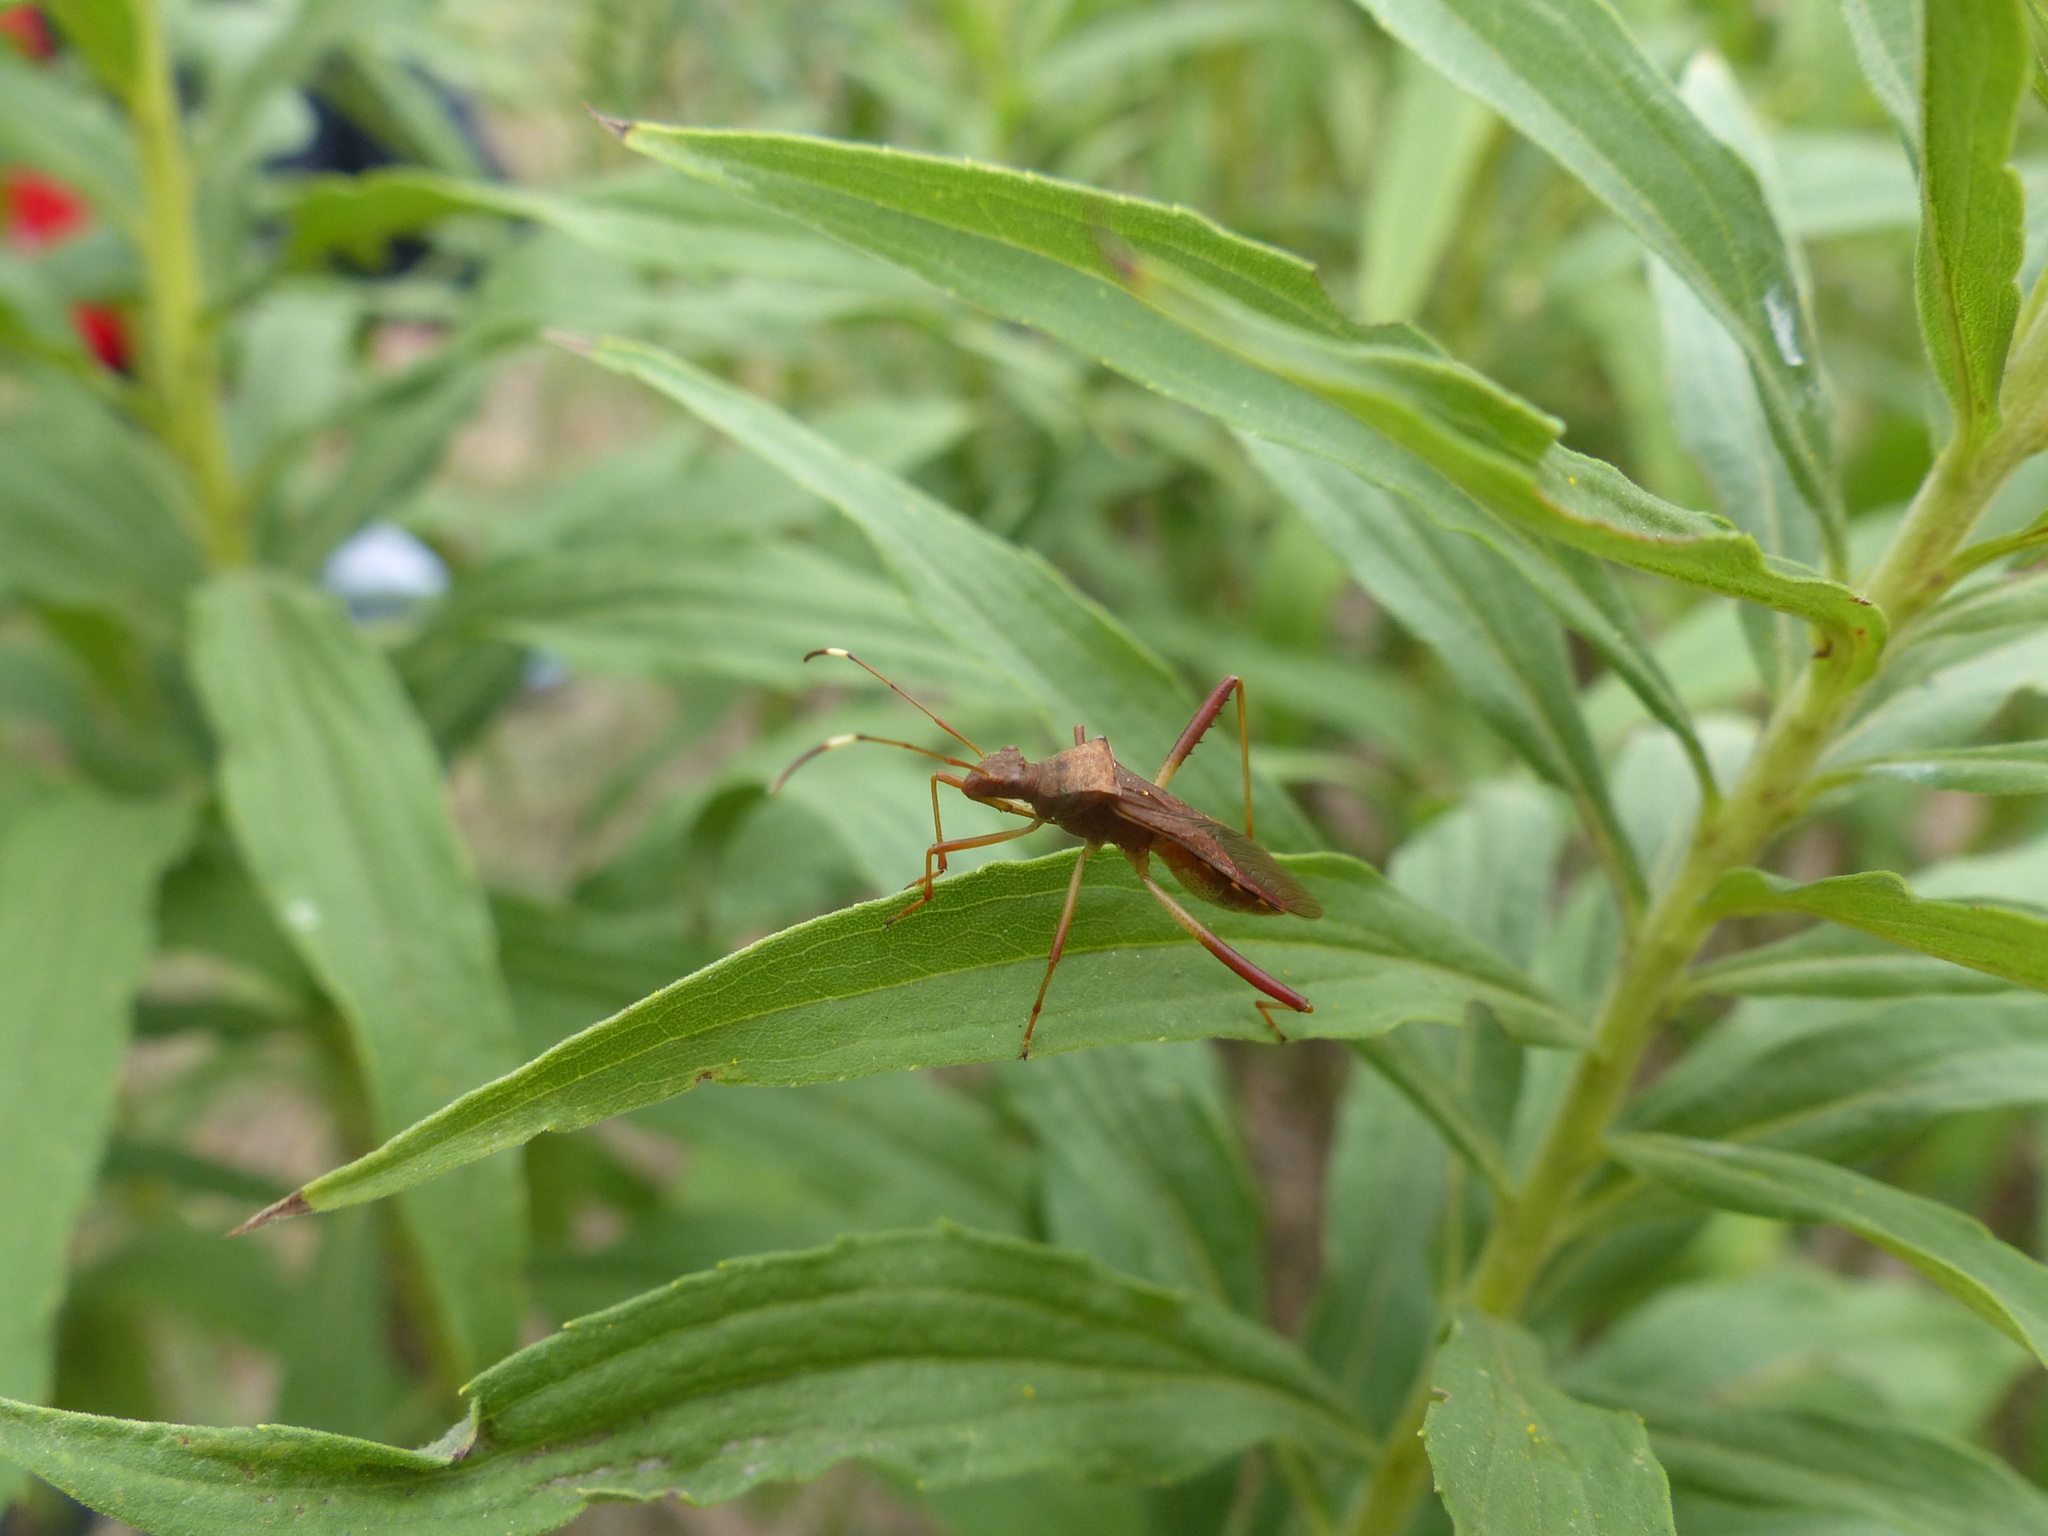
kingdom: Animalia
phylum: Arthropoda
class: Insecta
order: Hemiptera
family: Alydidae
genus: Megalotomus
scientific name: Megalotomus quinquespinosus
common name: Lupine bug
